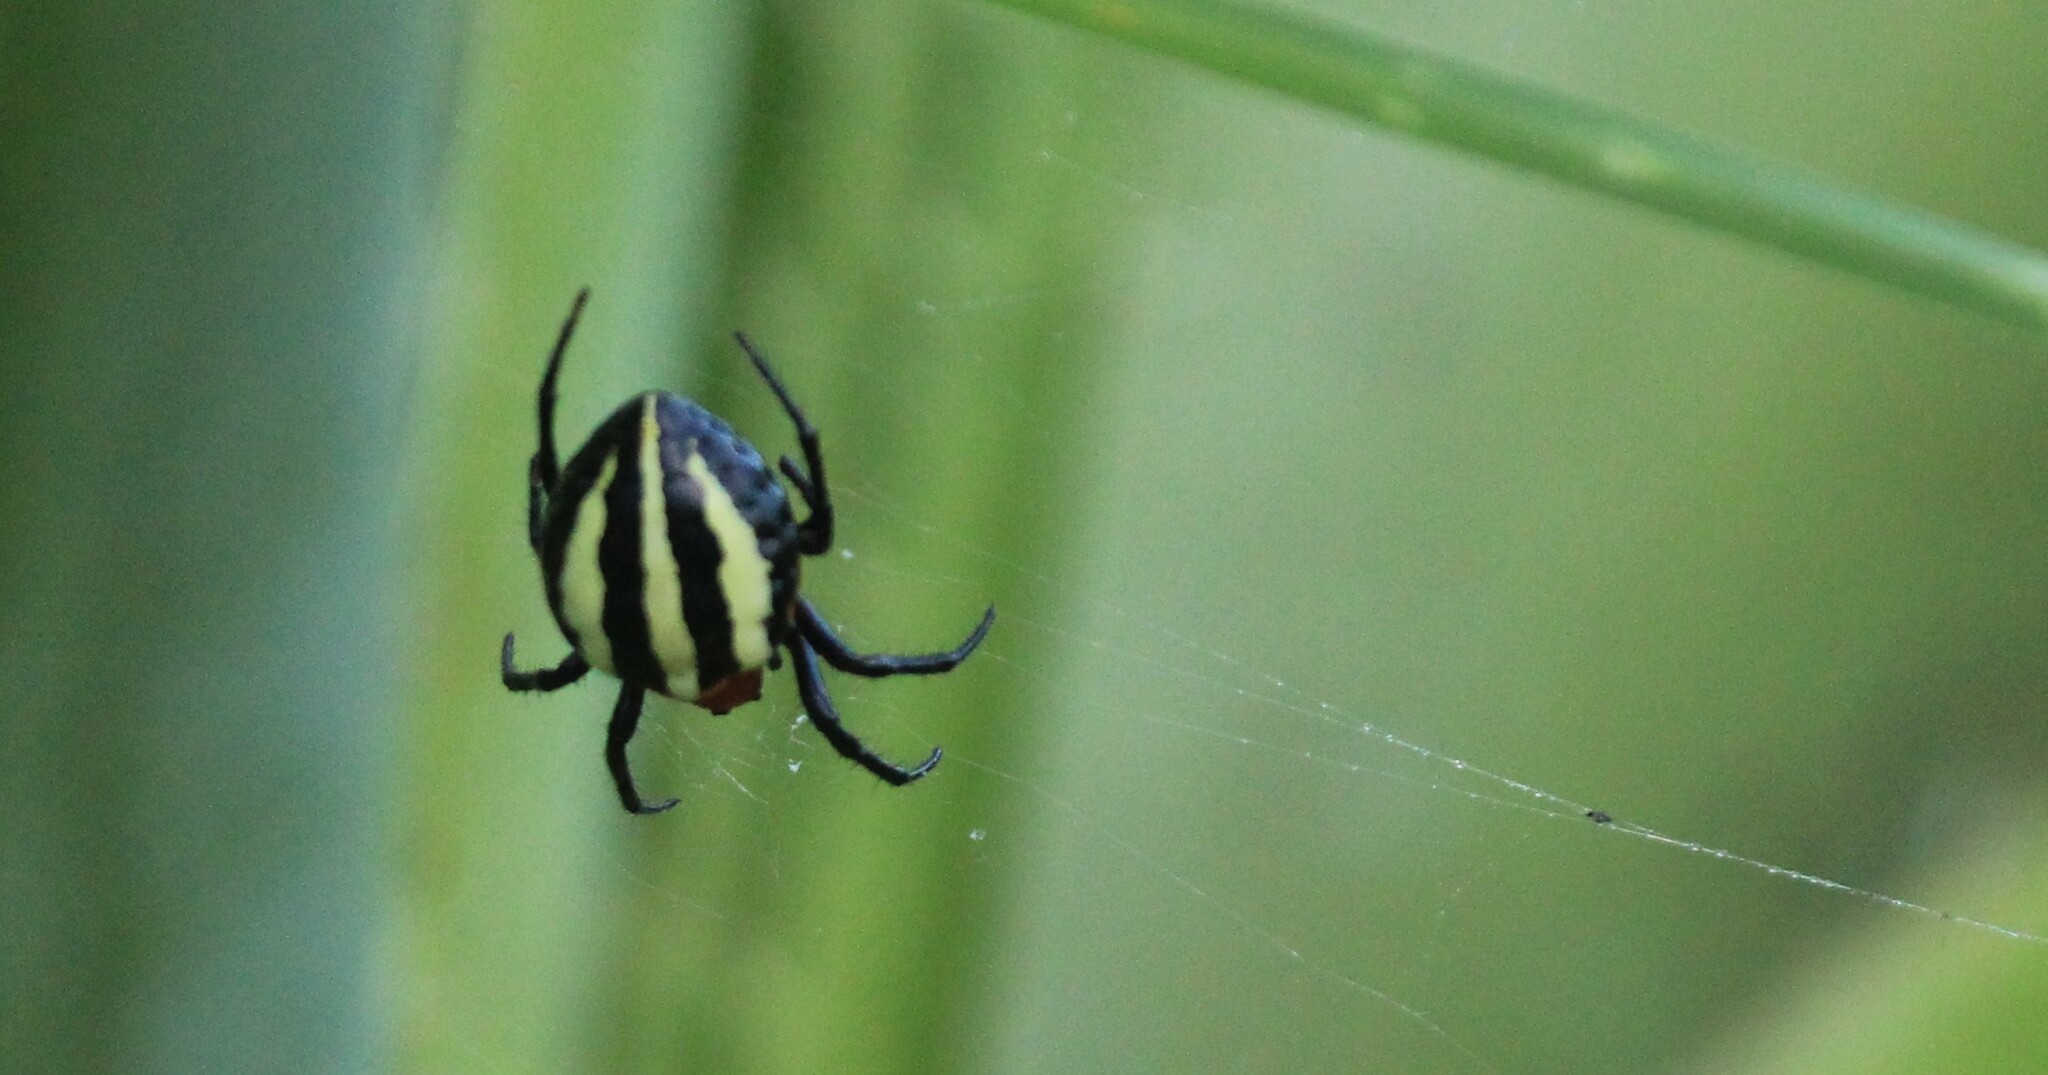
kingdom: Animalia
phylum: Arthropoda
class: Arachnida
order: Araneae
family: Araneidae
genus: Alpaida
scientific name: Alpaida quadrilorata
